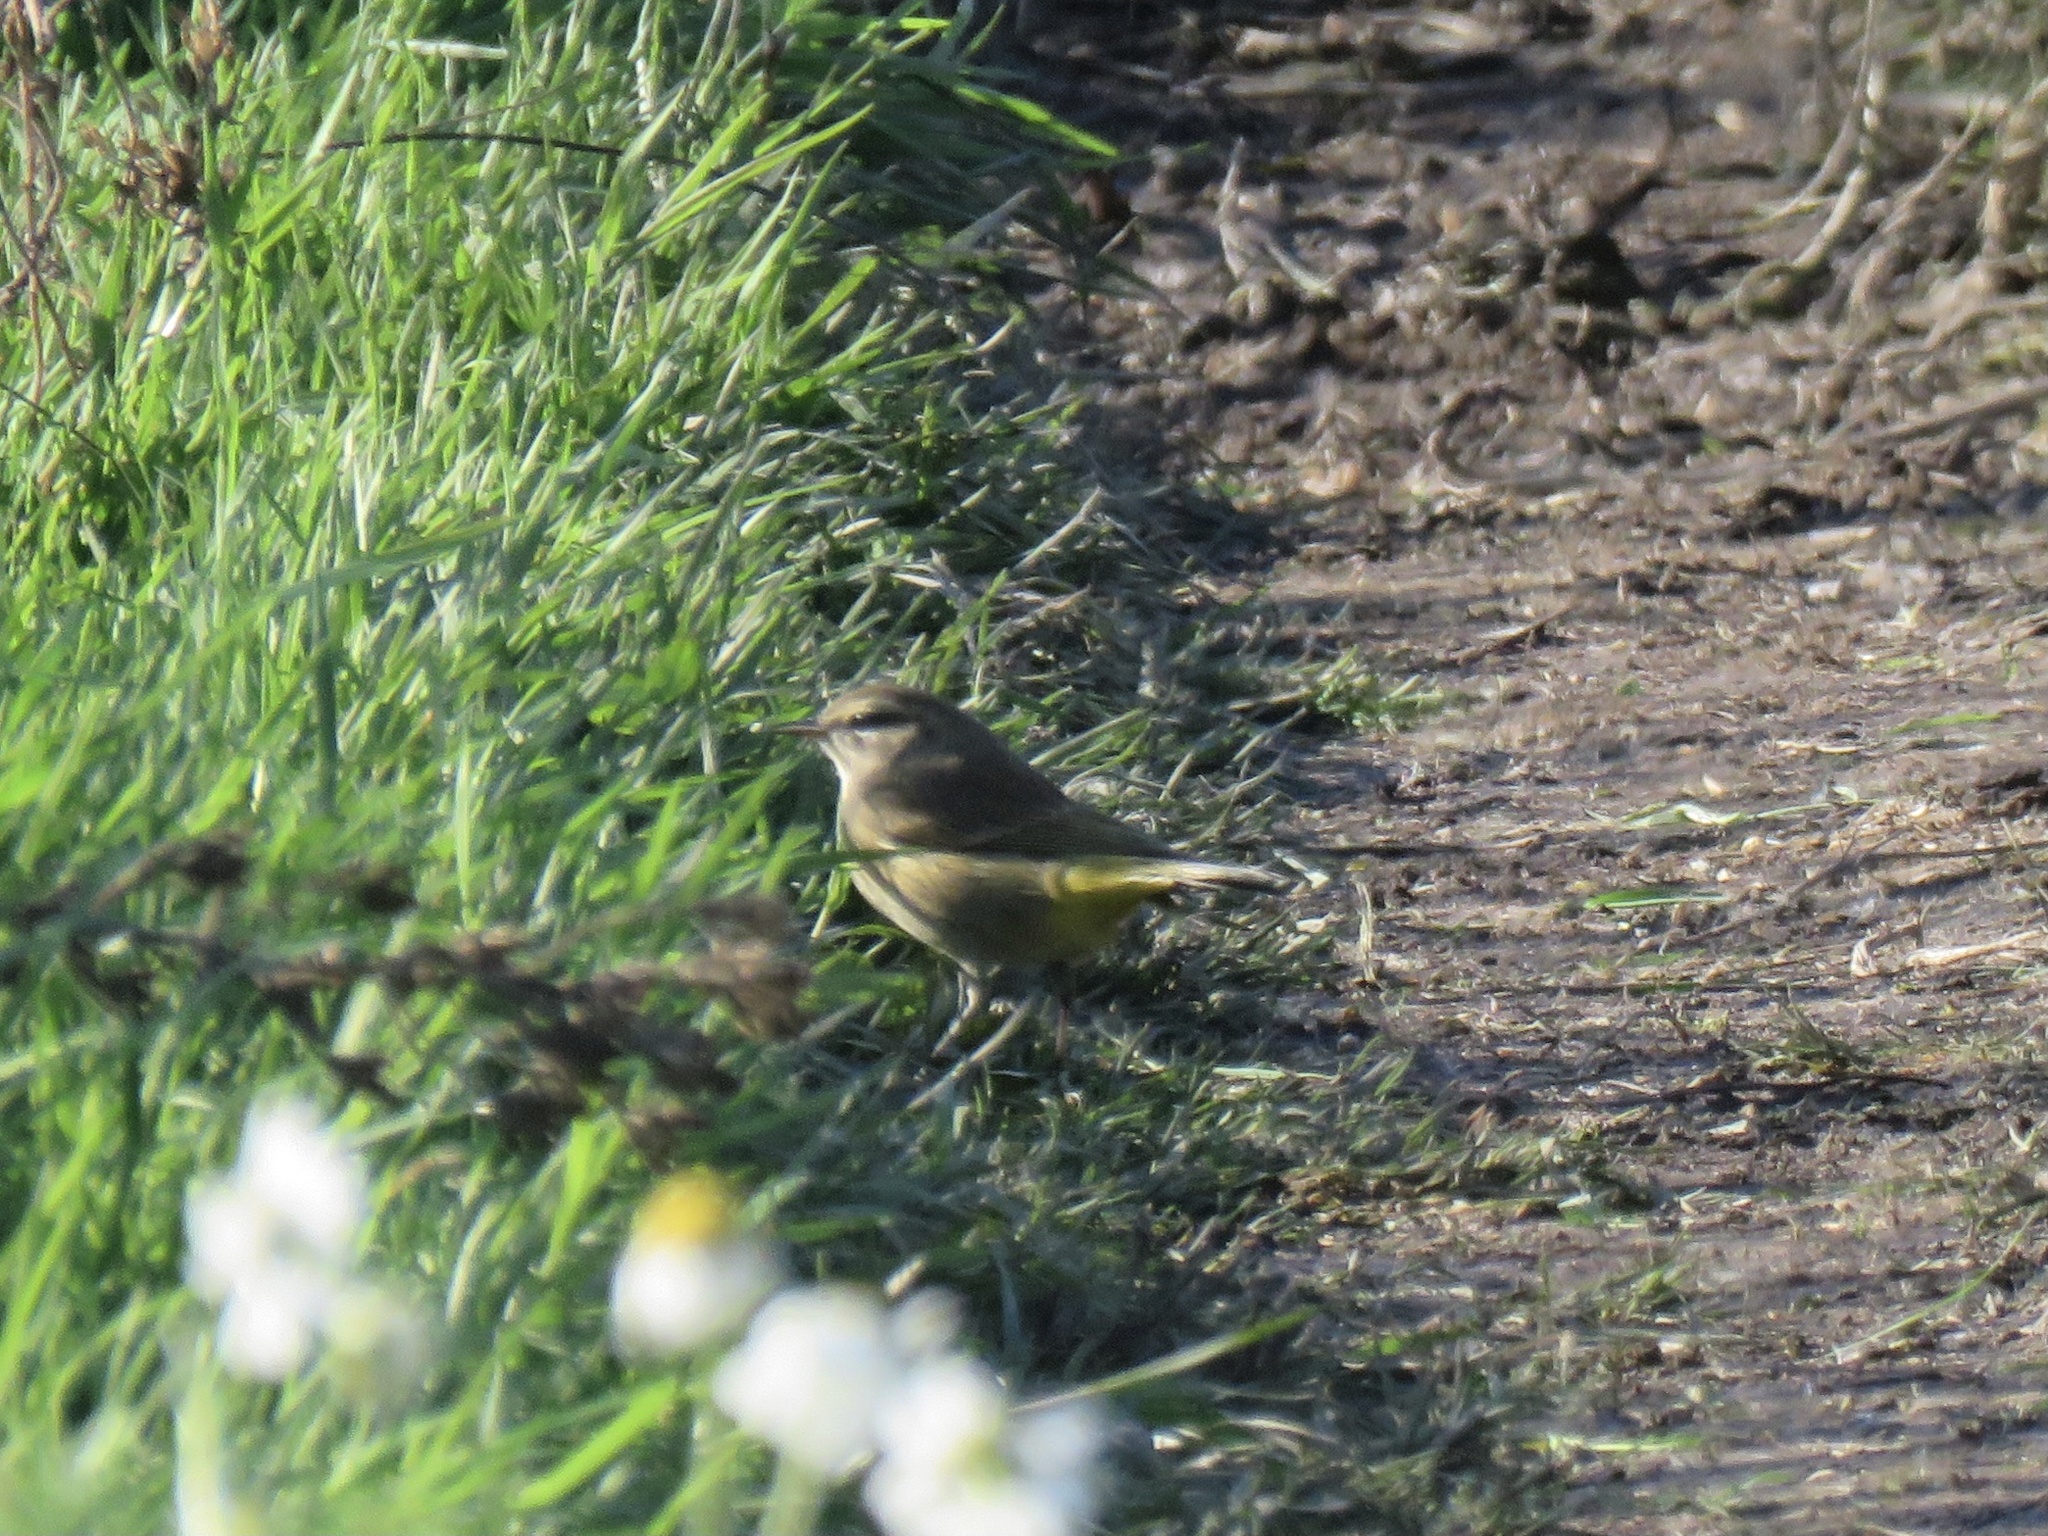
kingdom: Animalia
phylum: Chordata
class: Aves
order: Passeriformes
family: Parulidae
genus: Setophaga
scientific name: Setophaga palmarum
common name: Palm warbler
